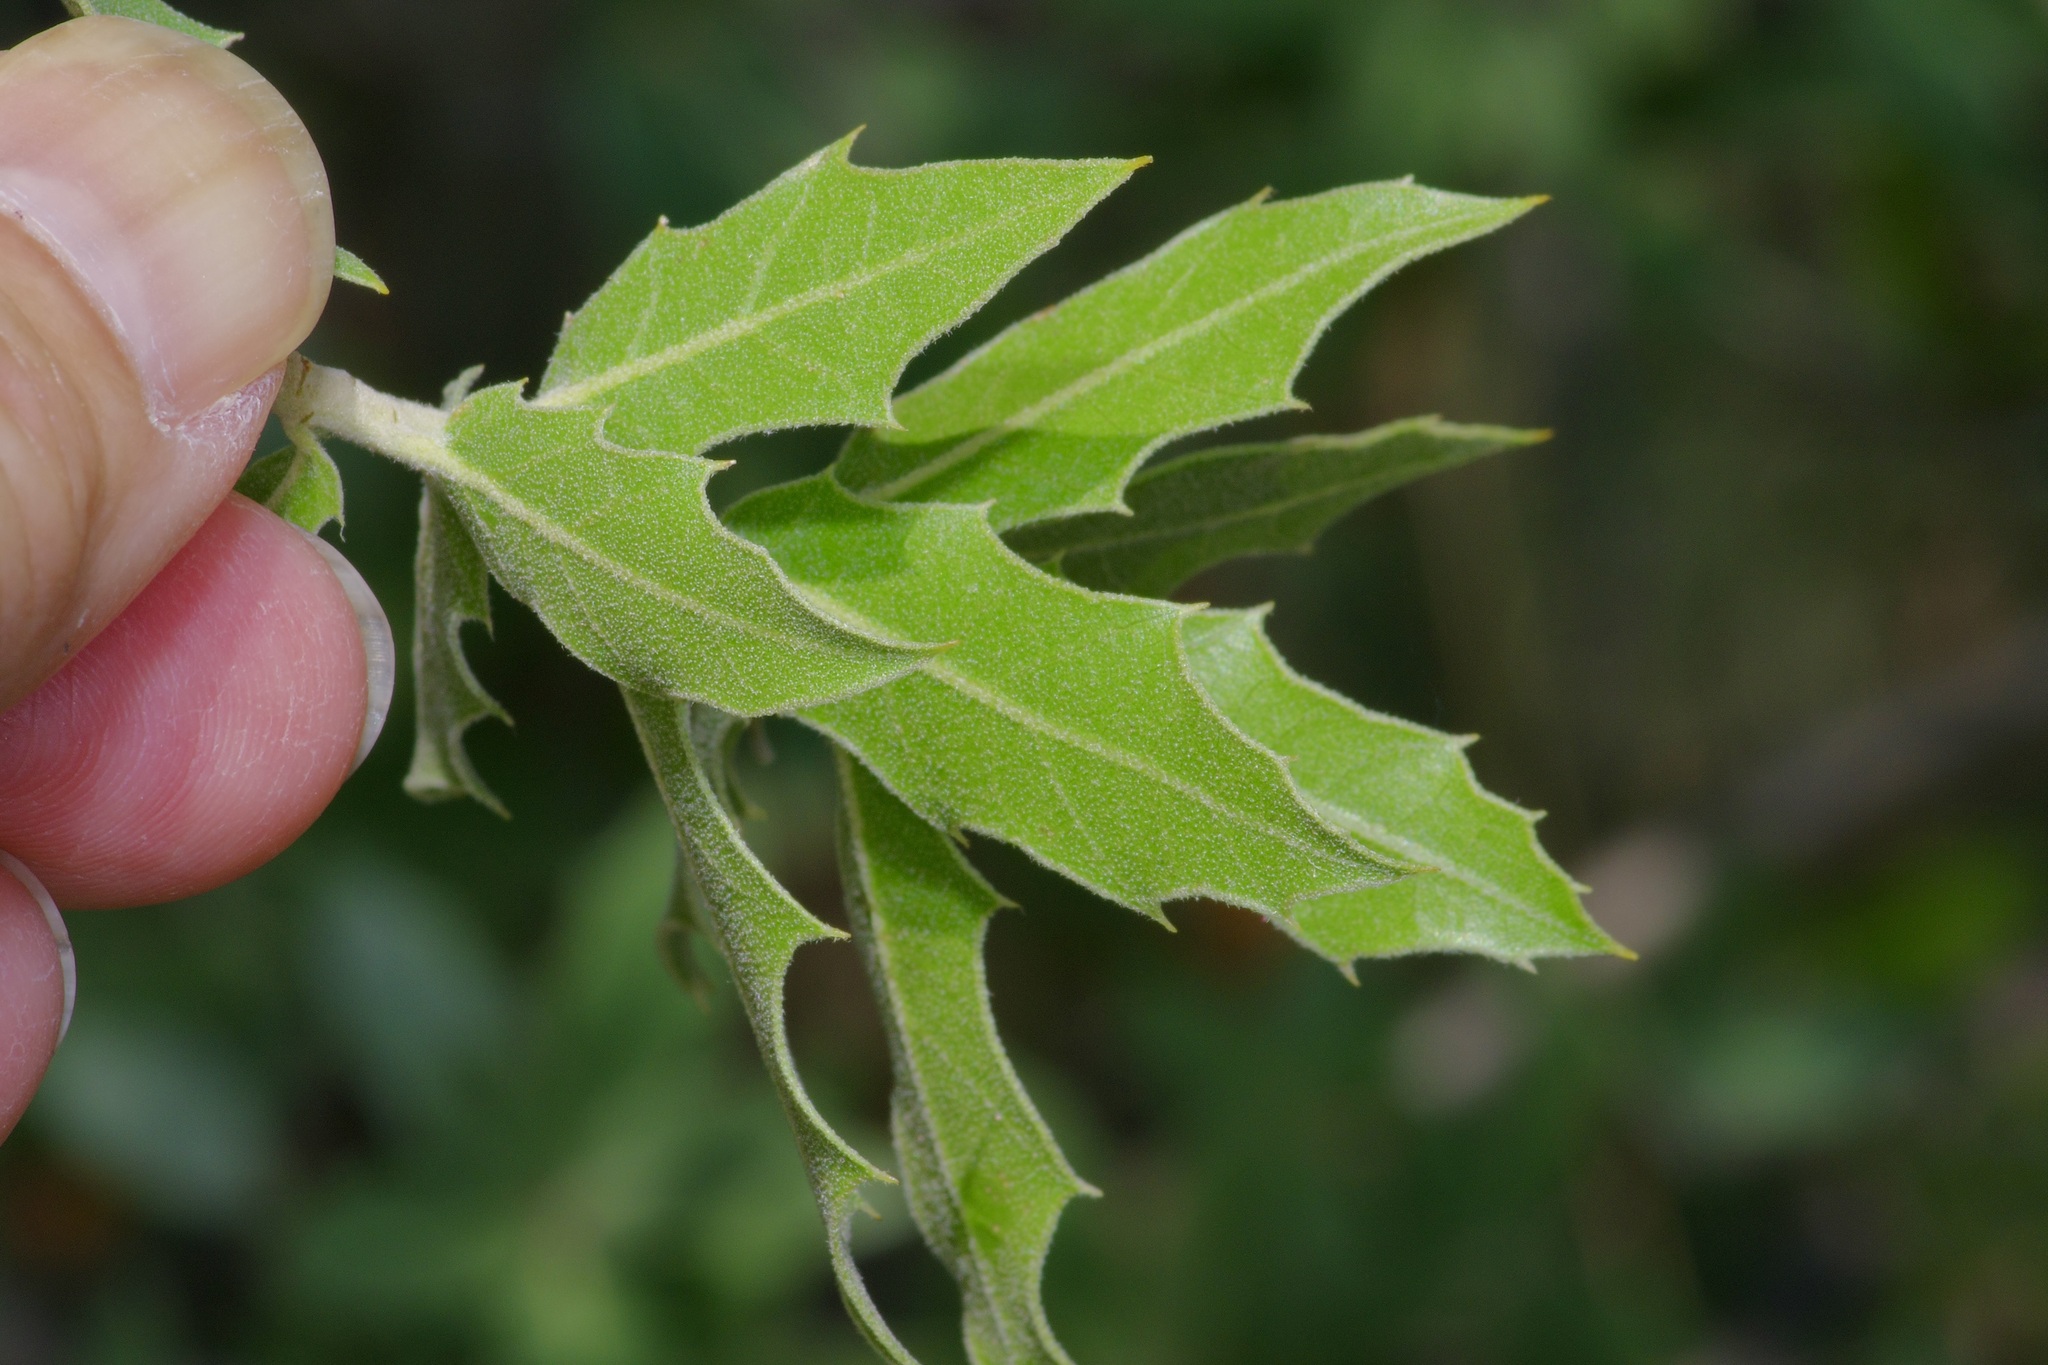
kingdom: Plantae
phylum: Tracheophyta
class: Magnoliopsida
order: Fagales
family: Fagaceae
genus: Quercus
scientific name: Quercus emoryi
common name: Emory oak
